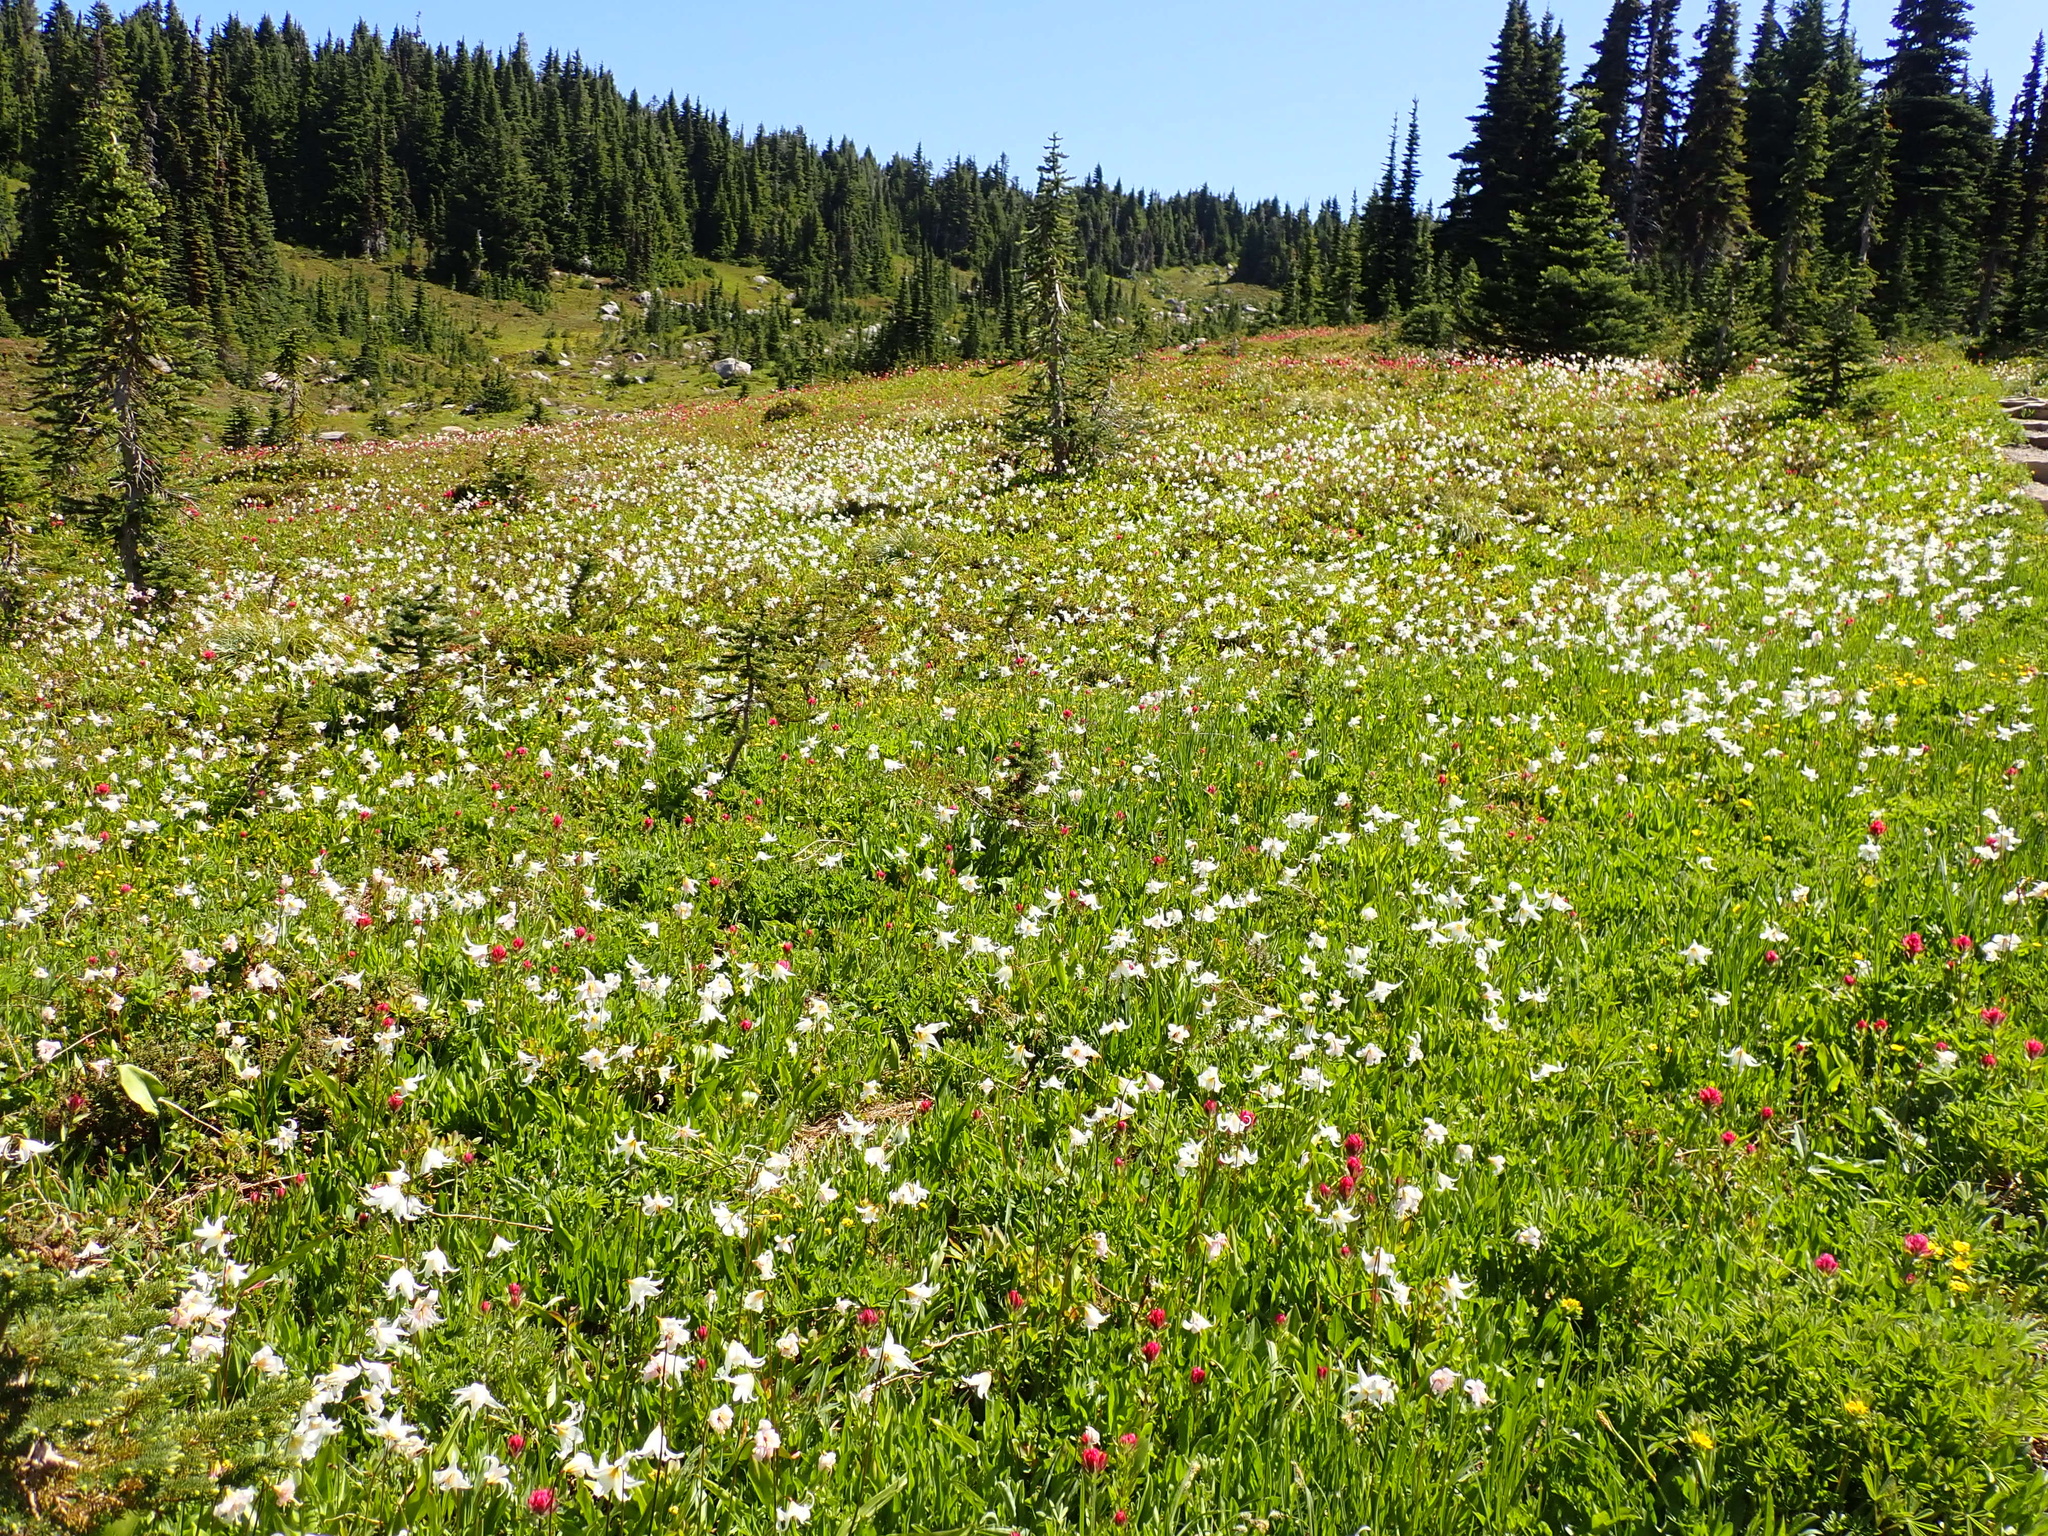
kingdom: Plantae
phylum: Tracheophyta
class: Liliopsida
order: Liliales
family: Liliaceae
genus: Erythronium
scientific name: Erythronium montanum
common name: Avalanche lily
